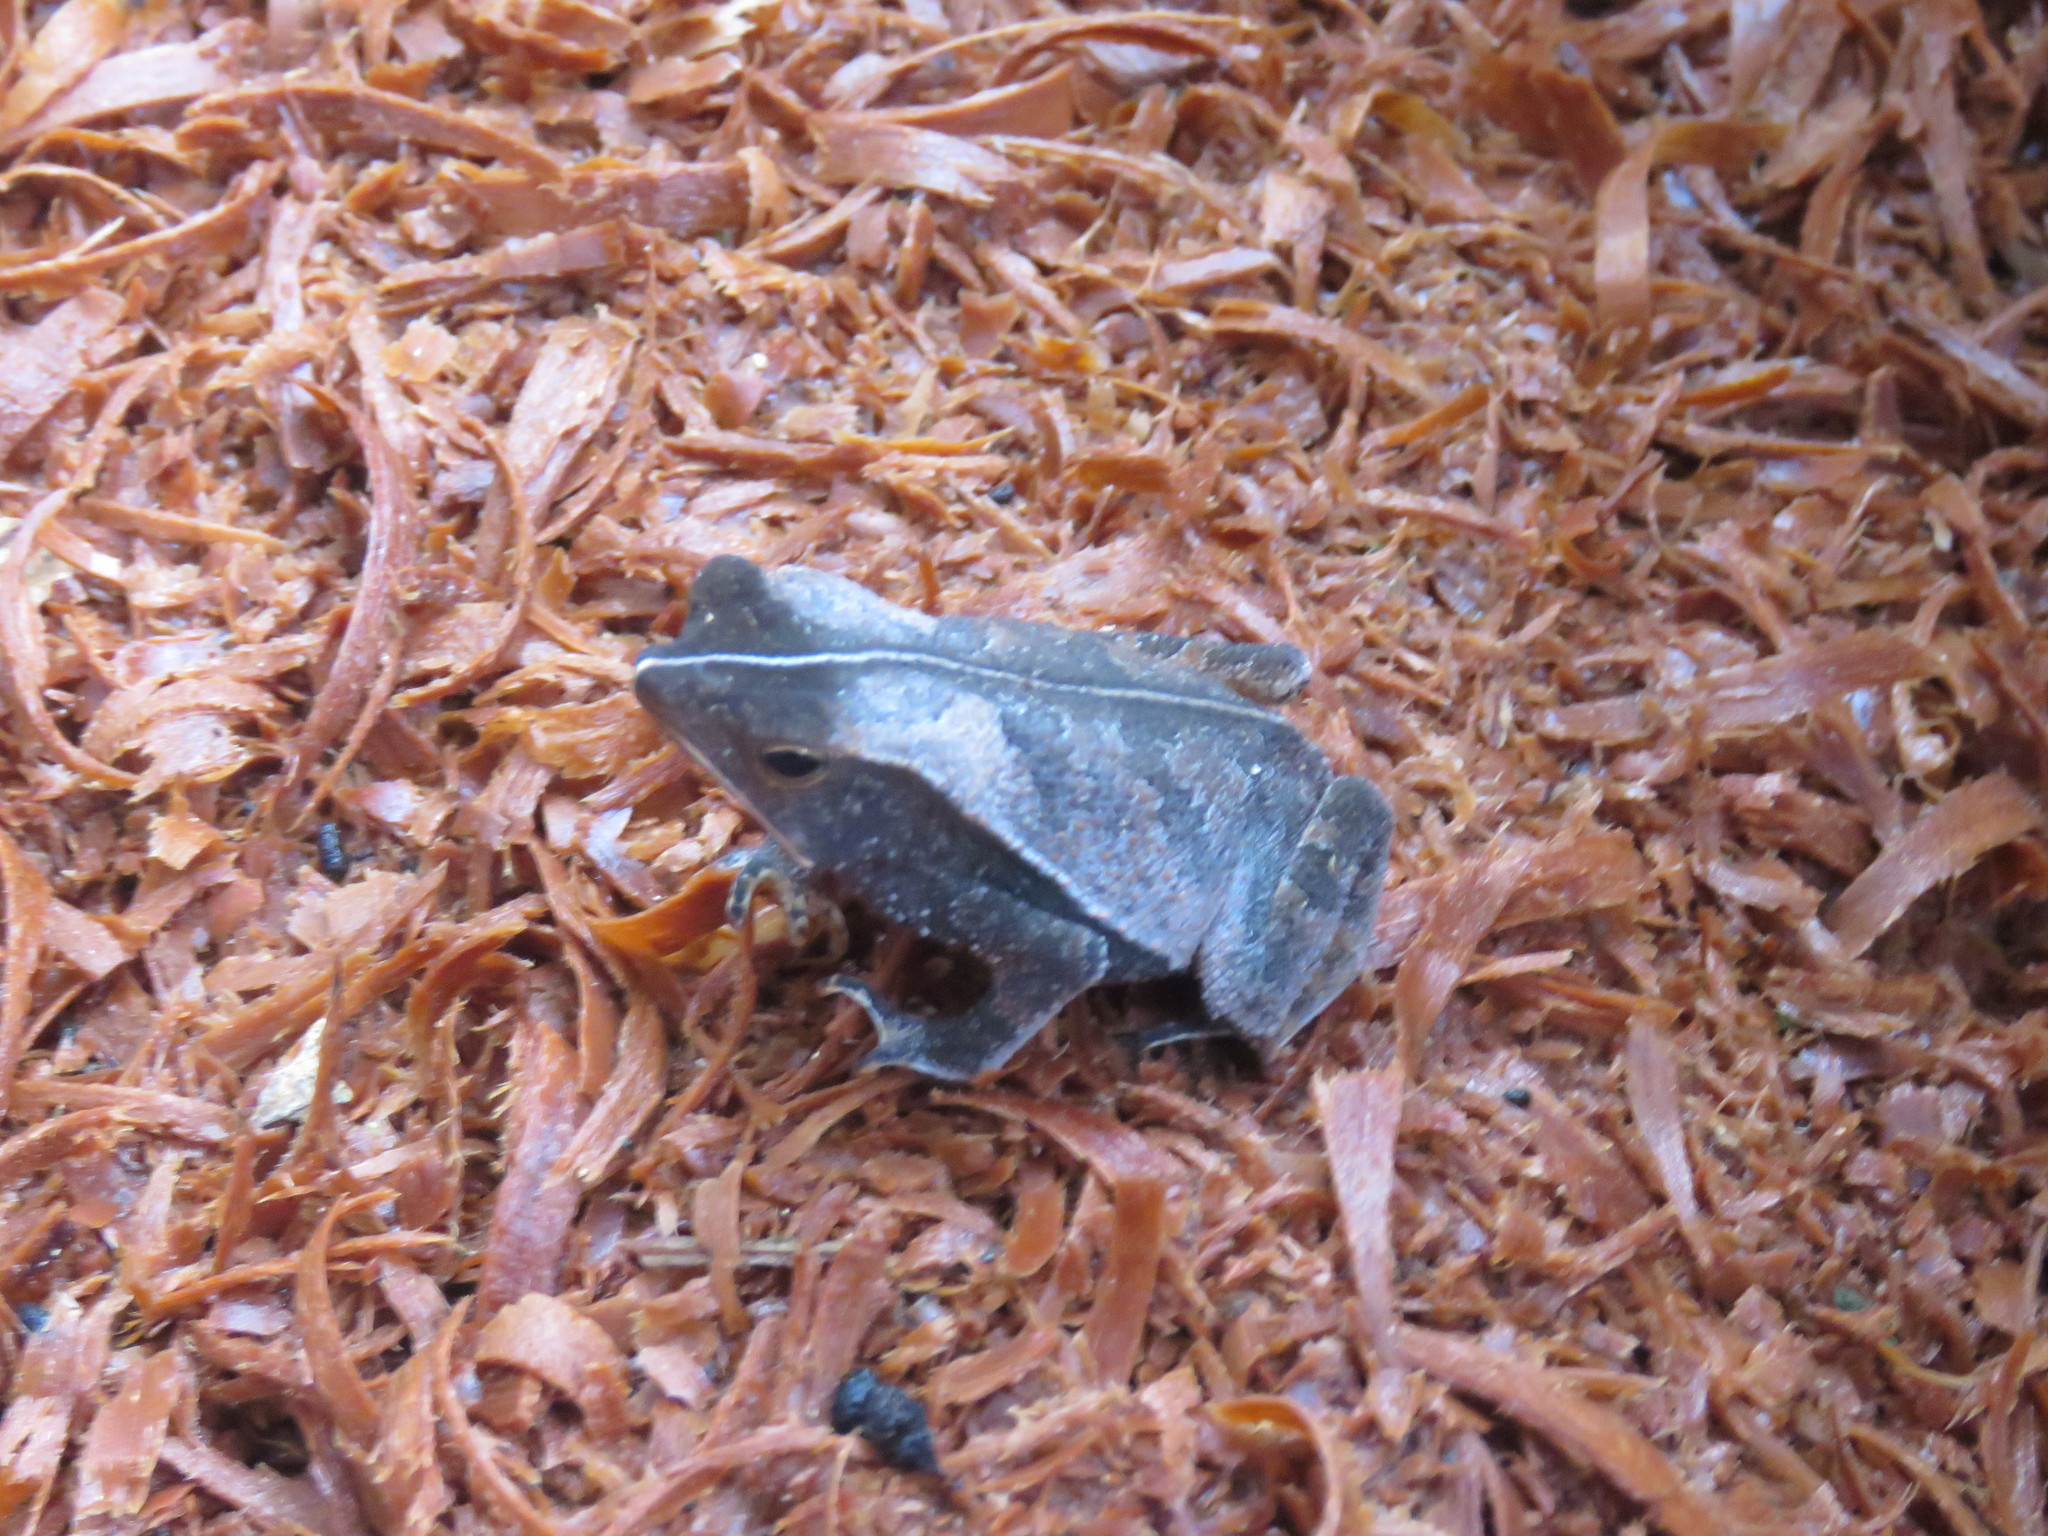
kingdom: Animalia
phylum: Chordata
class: Amphibia
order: Anura
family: Bufonidae
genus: Rhinella
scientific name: Rhinella castaneotica
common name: Para toad
